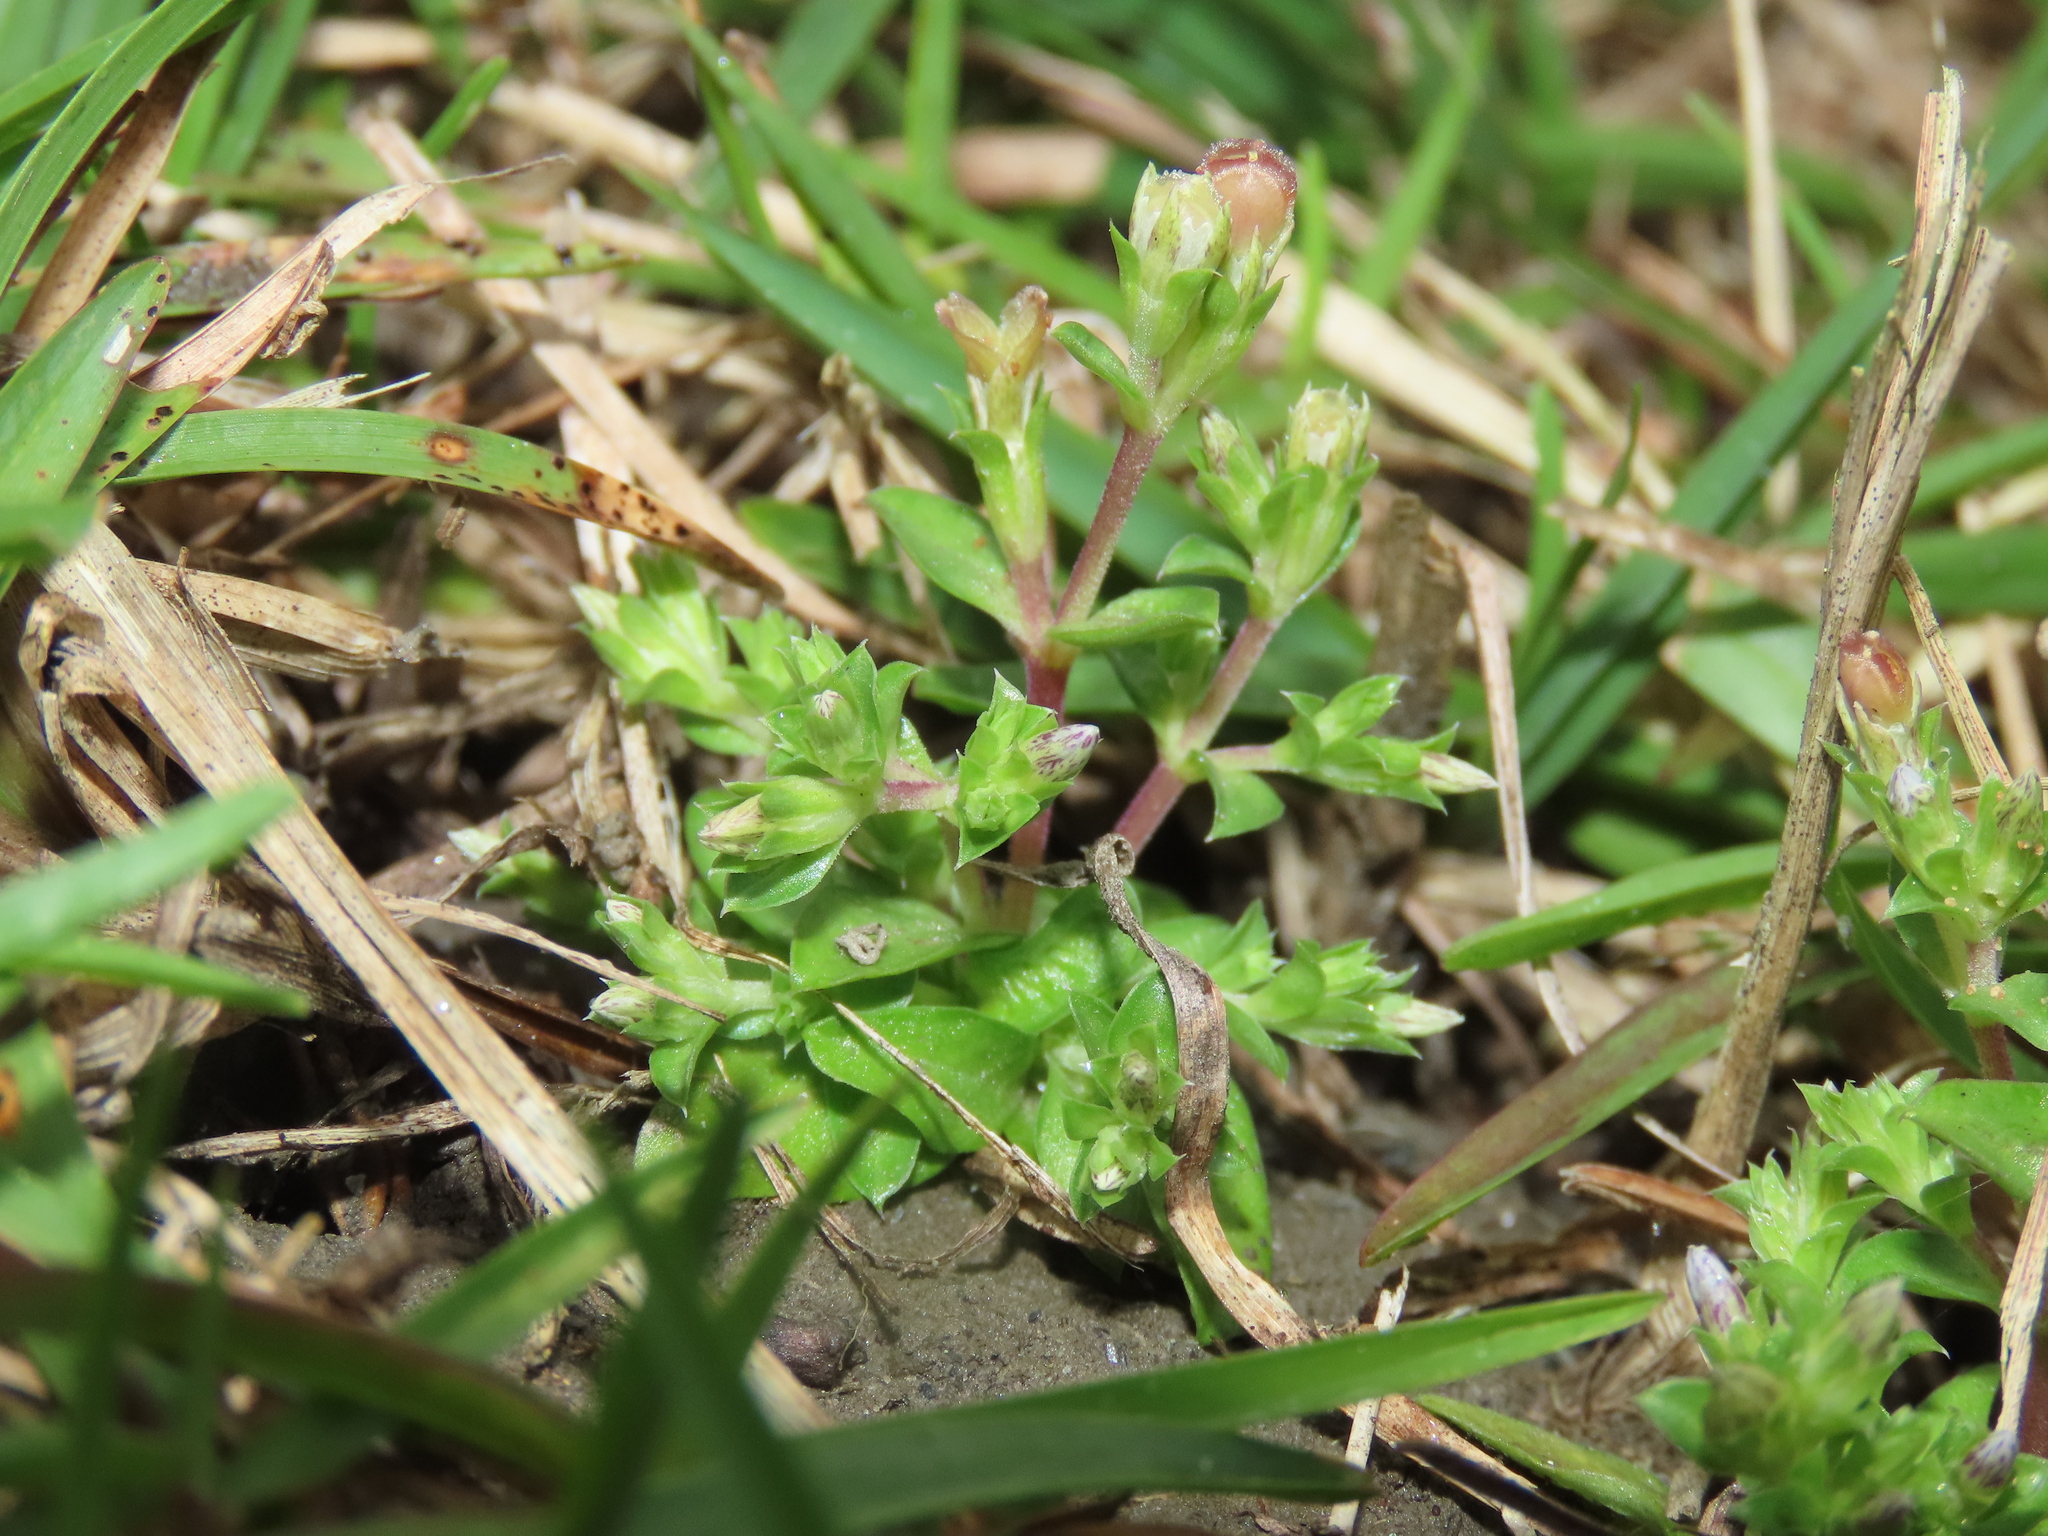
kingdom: Plantae
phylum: Tracheophyta
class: Magnoliopsida
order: Gentianales
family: Gentianaceae
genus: Gentiana
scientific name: Gentiana yokusai
